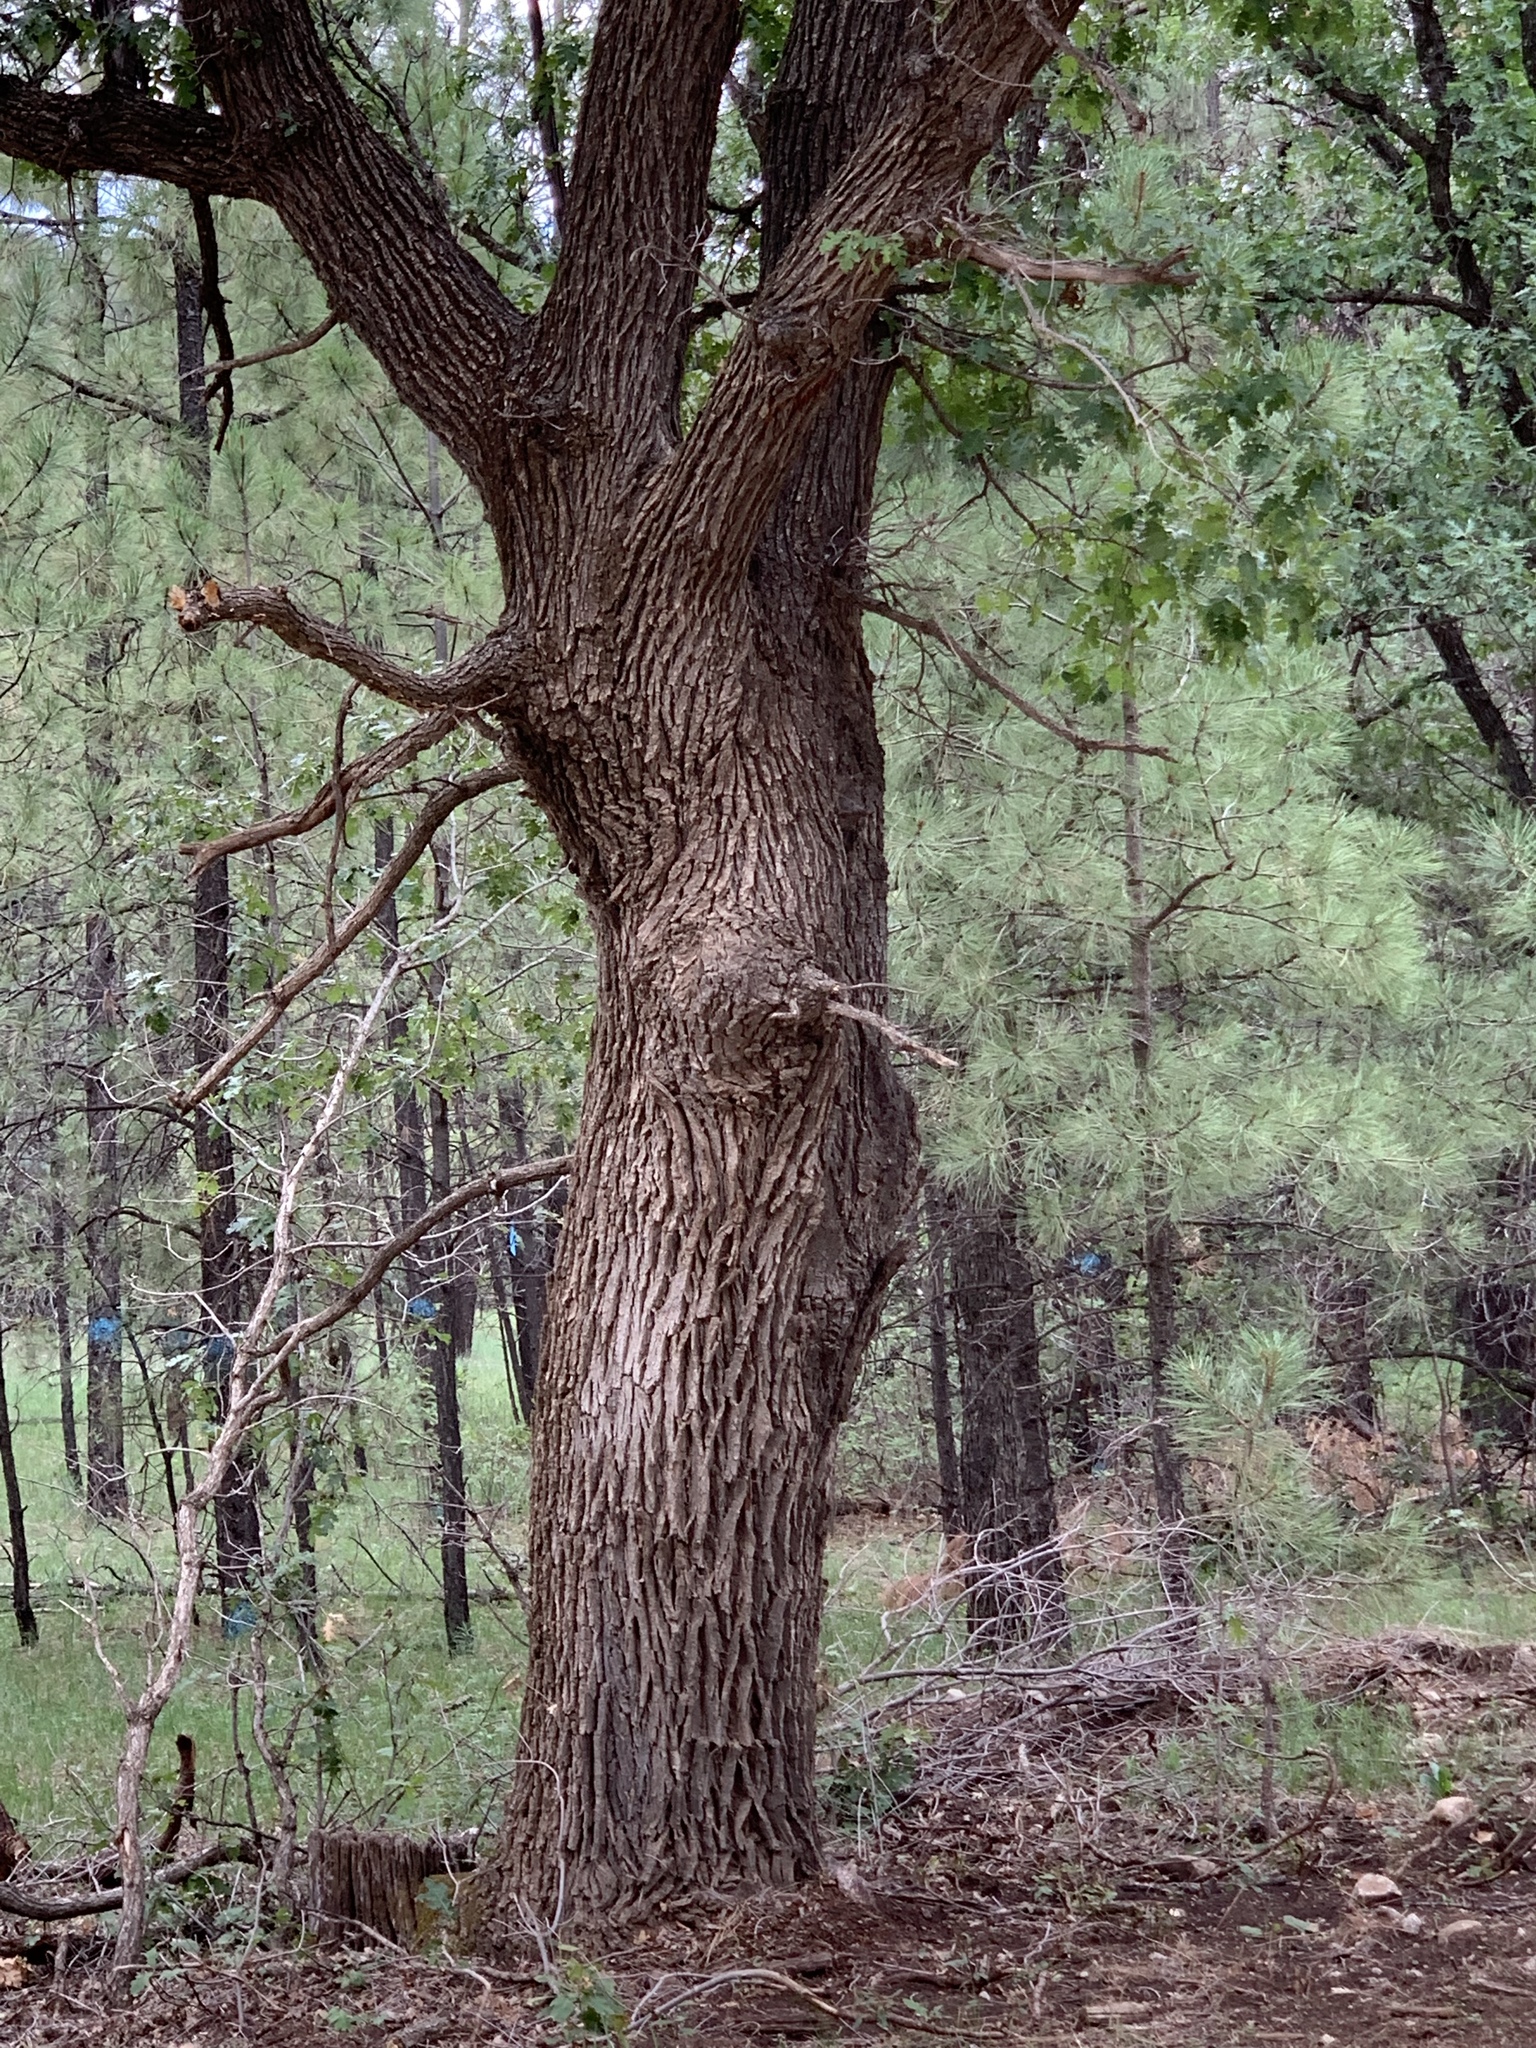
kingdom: Plantae
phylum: Tracheophyta
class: Magnoliopsida
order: Fagales
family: Fagaceae
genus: Quercus
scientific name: Quercus gambelii
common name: Gambel oak
